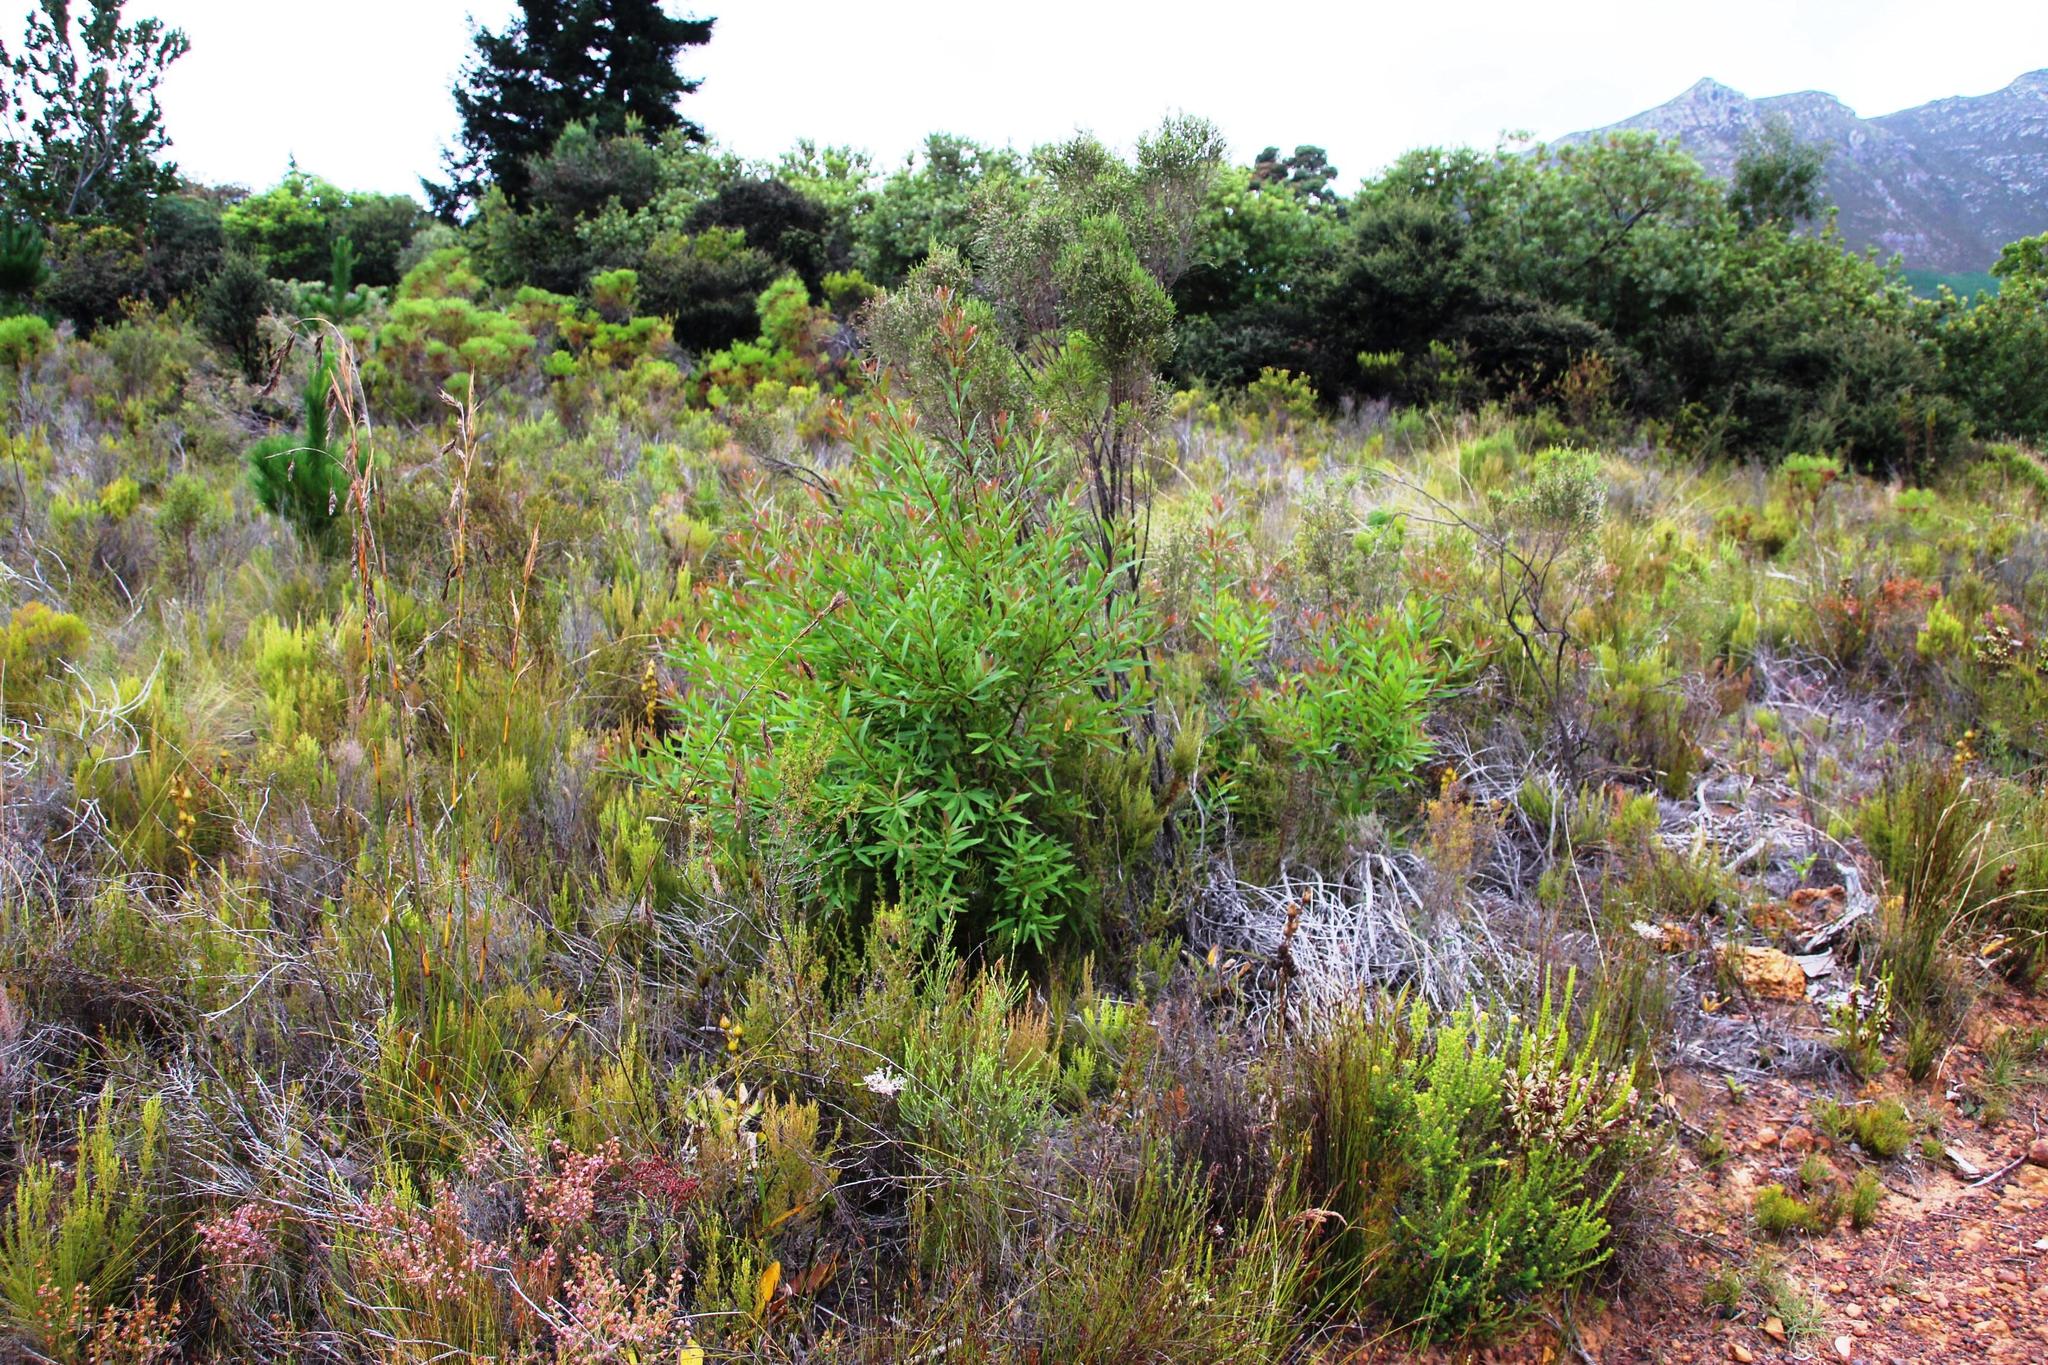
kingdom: Plantae
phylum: Tracheophyta
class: Magnoliopsida
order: Proteales
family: Proteaceae
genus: Hakea
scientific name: Hakea salicifolia
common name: Willow hakea
